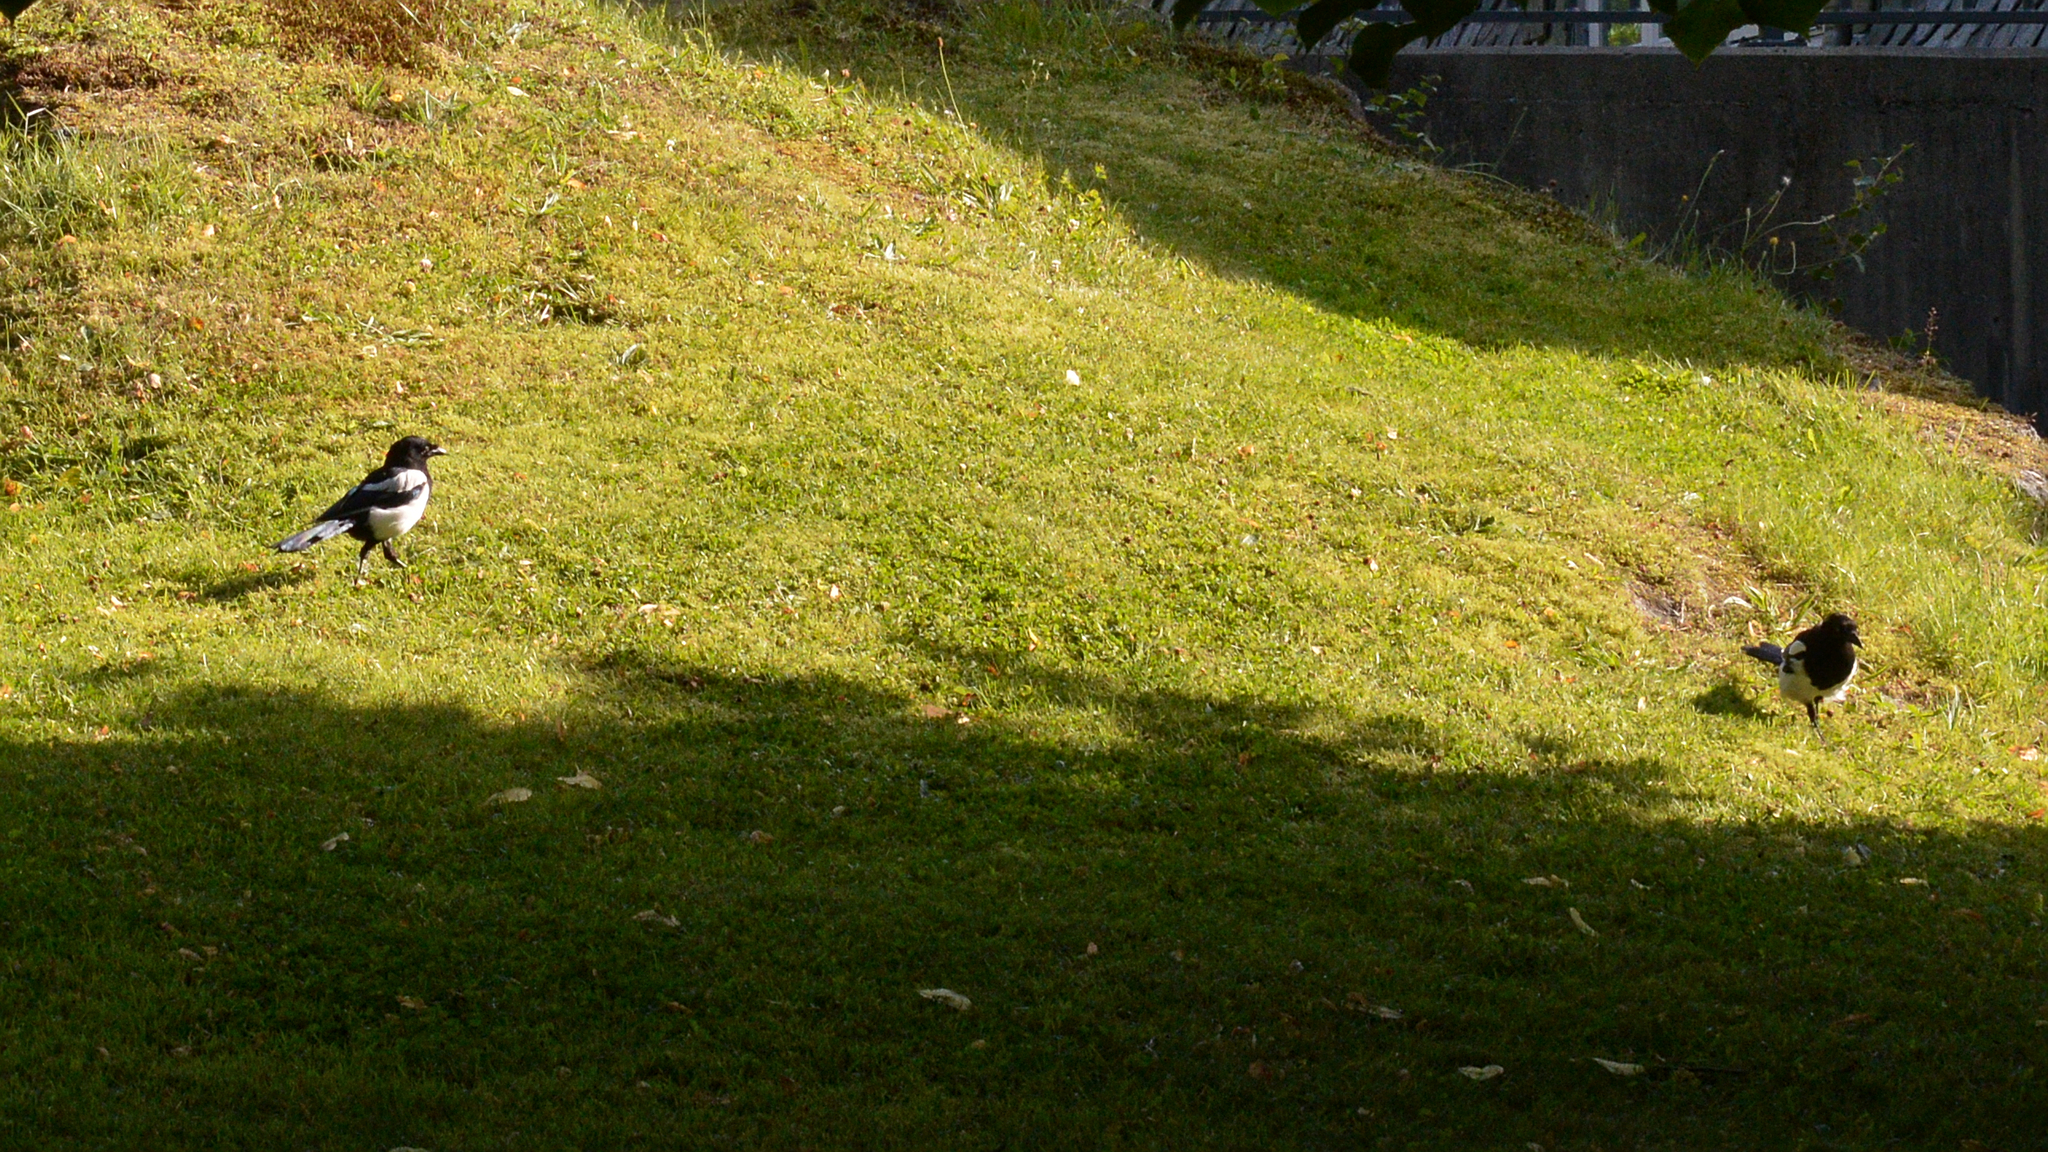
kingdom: Animalia
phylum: Chordata
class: Aves
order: Passeriformes
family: Corvidae
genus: Pica
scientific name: Pica pica
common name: Eurasian magpie
